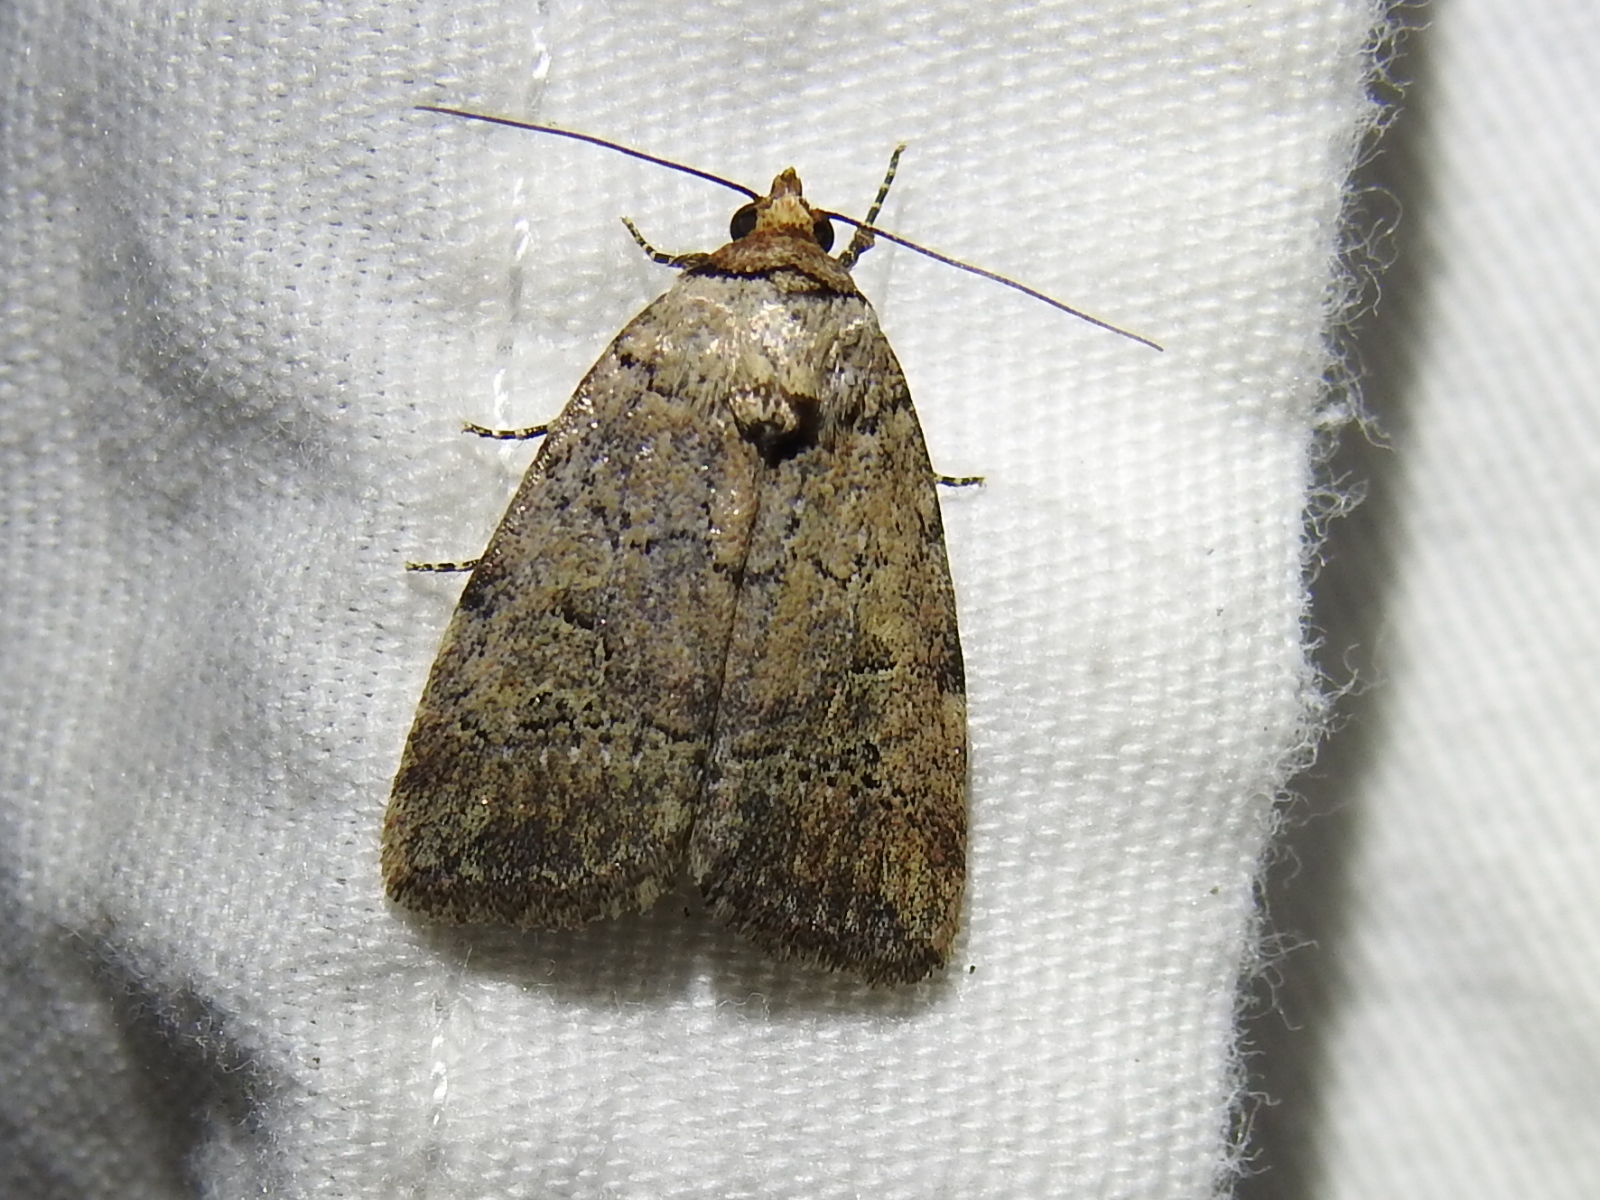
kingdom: Animalia
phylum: Arthropoda
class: Insecta
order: Lepidoptera
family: Noctuidae
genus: Elaphria
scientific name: Elaphria festivoides
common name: Festive midget
